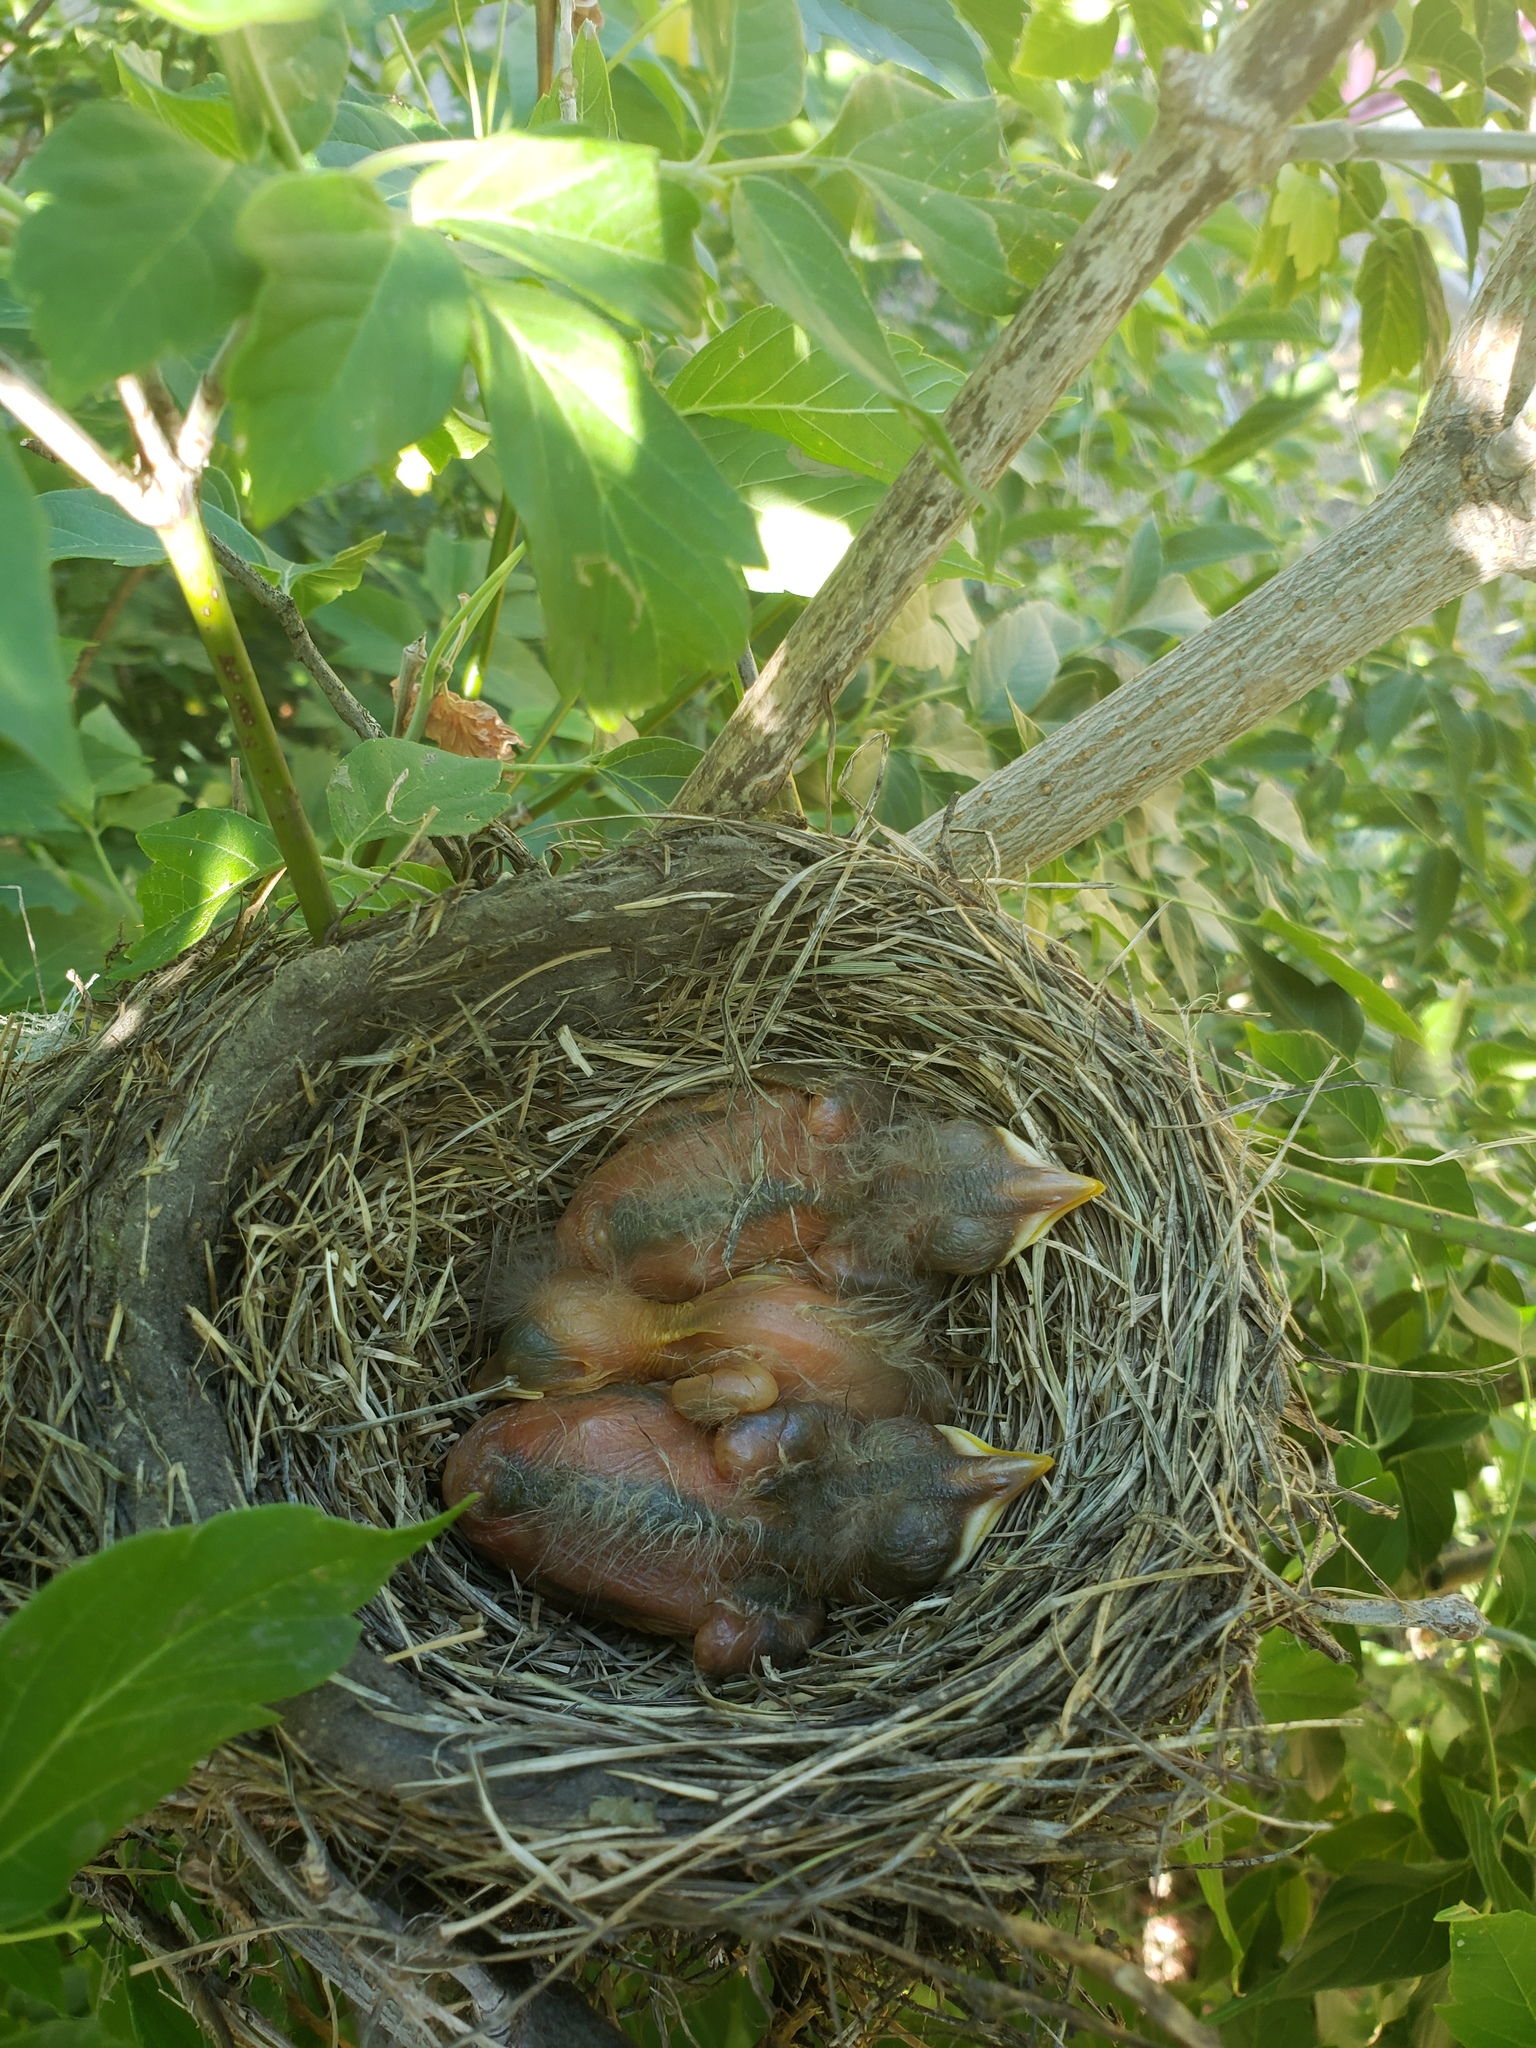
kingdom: Animalia
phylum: Chordata
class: Aves
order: Passeriformes
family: Turdidae
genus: Turdus
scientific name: Turdus migratorius
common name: American robin
